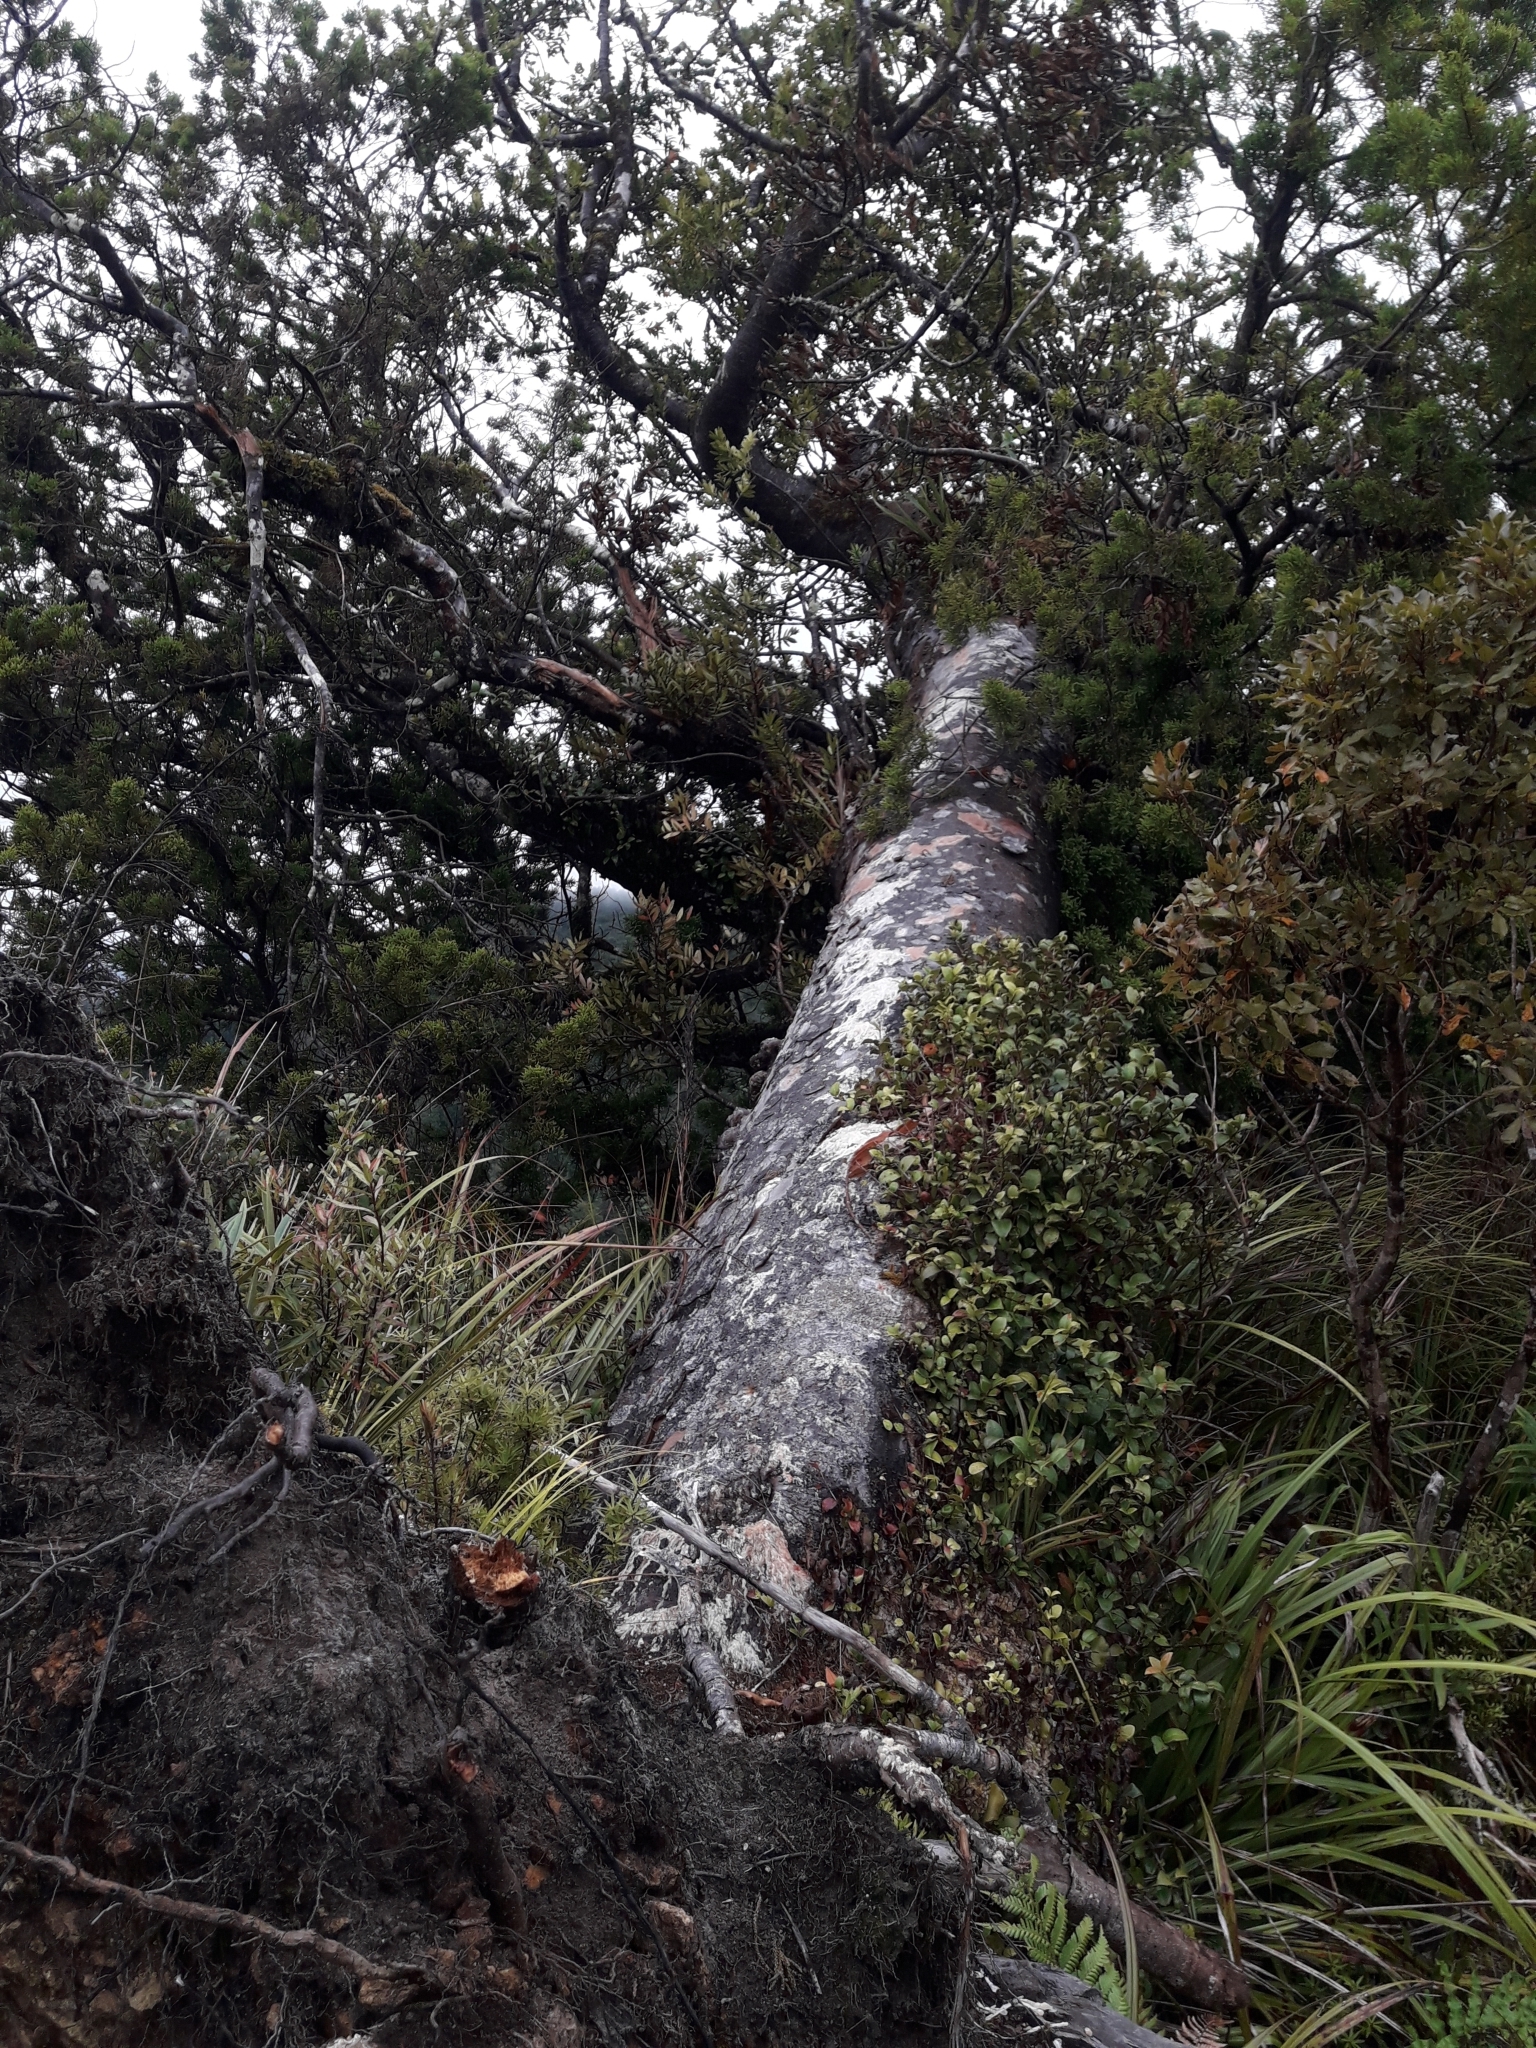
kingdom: Plantae
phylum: Tracheophyta
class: Pinopsida
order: Pinales
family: Araucariaceae
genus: Agathis
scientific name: Agathis australis
